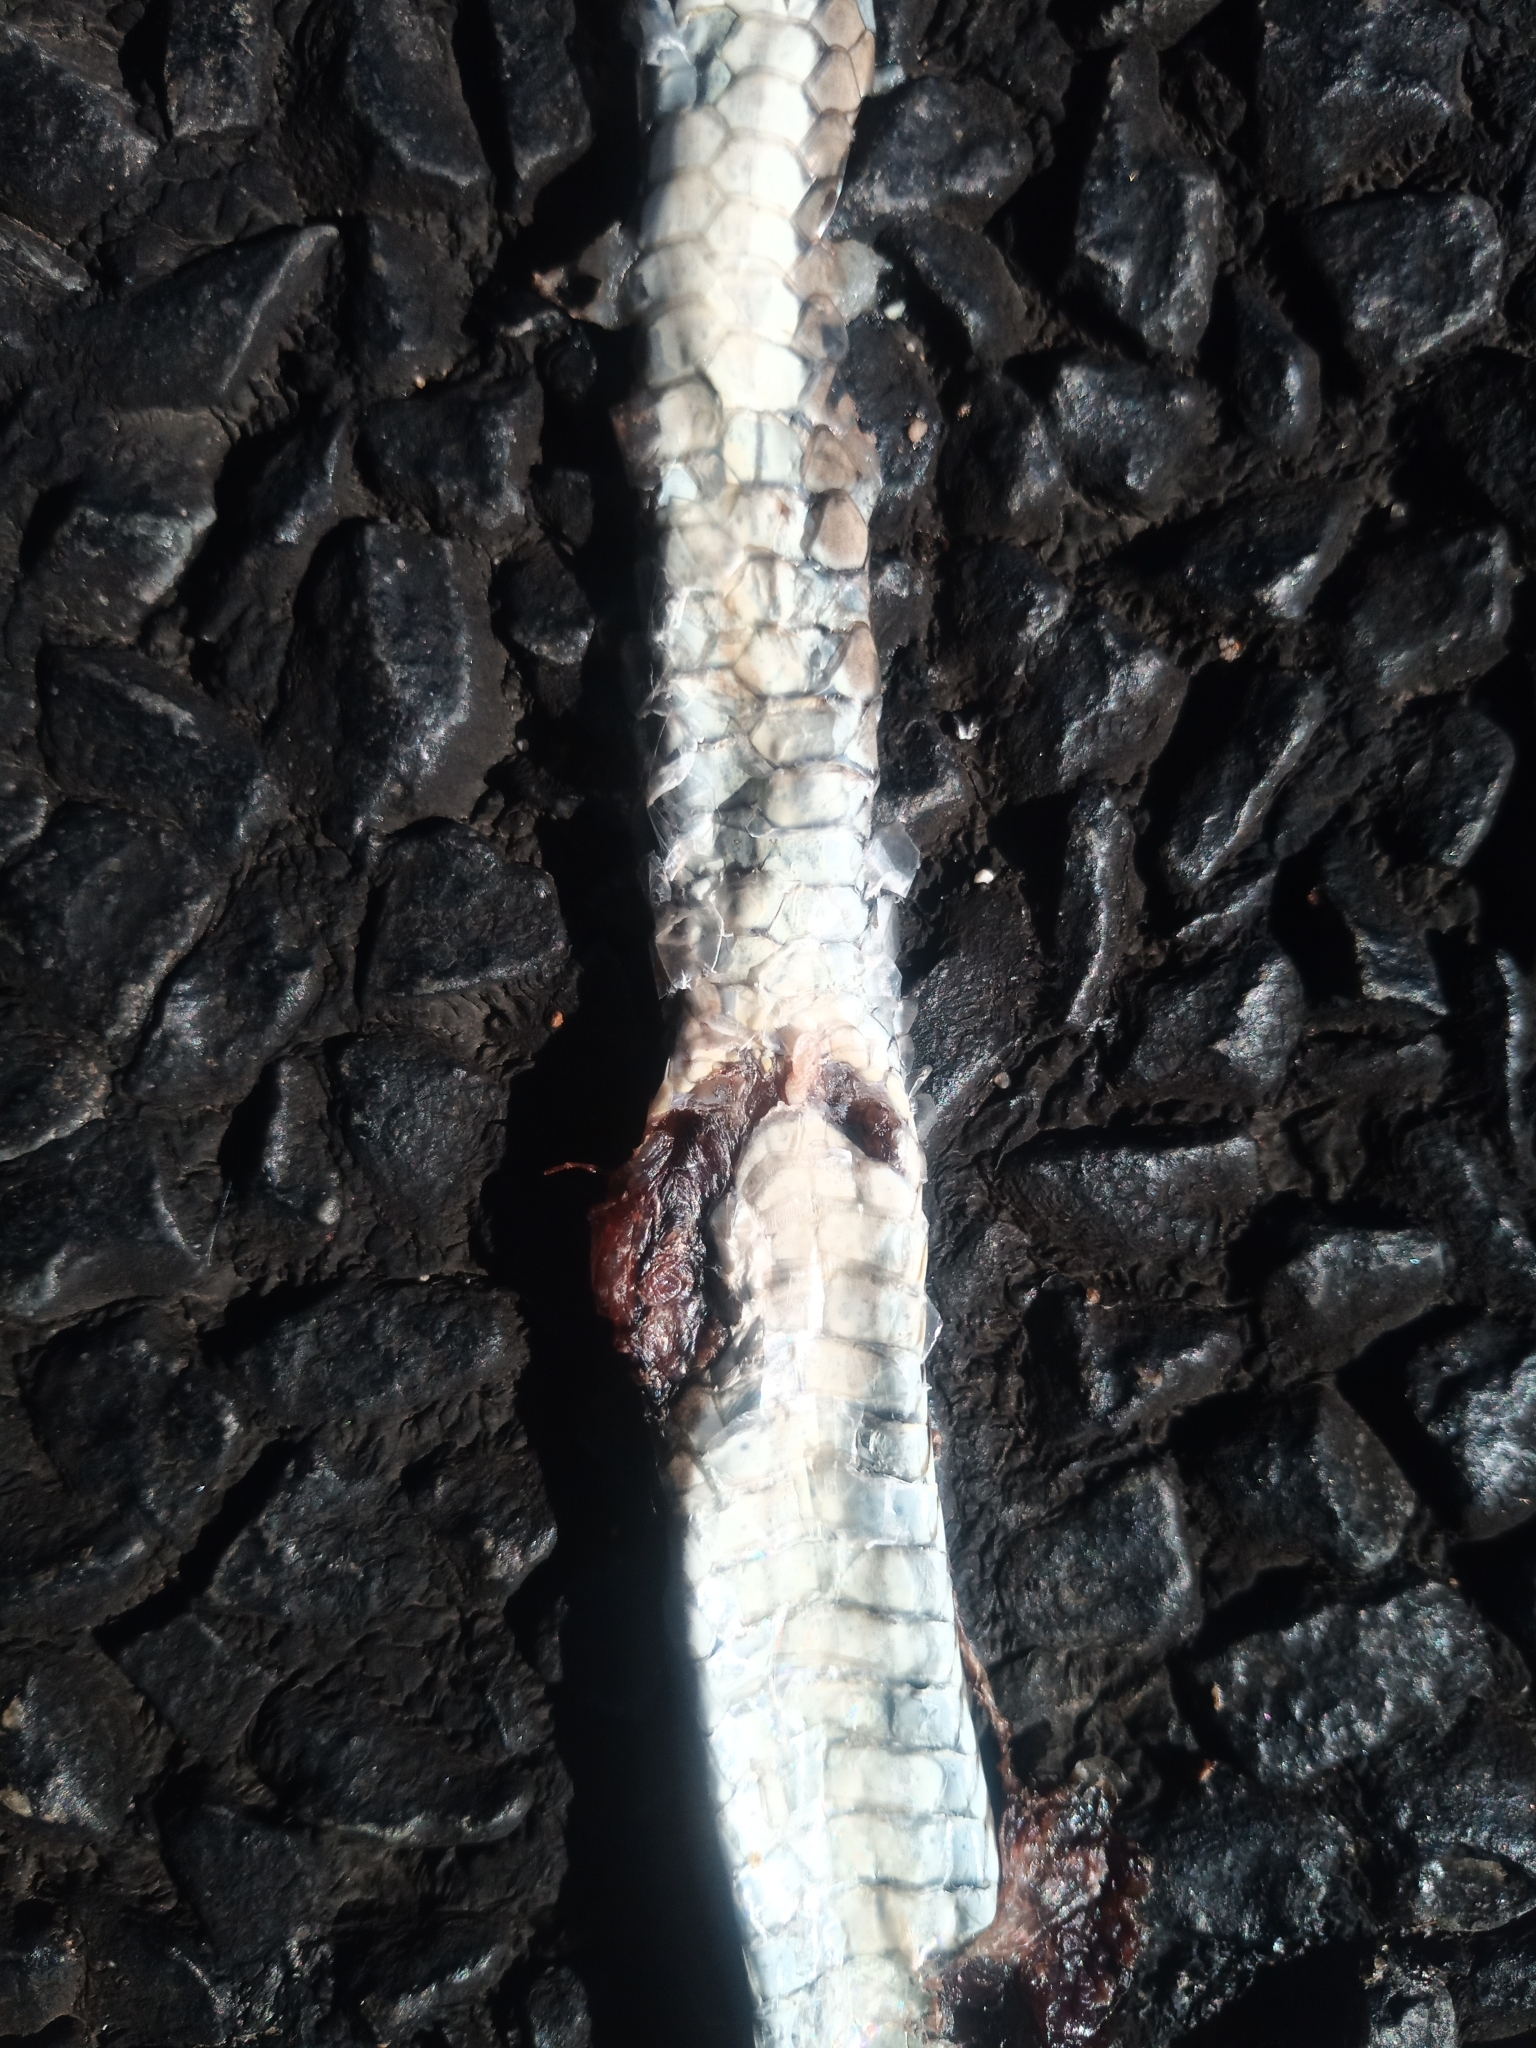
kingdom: Animalia
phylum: Chordata
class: Squamata
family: Psammophiidae
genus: Psammophis
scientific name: Psammophis leightoni
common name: Cape sand snake
